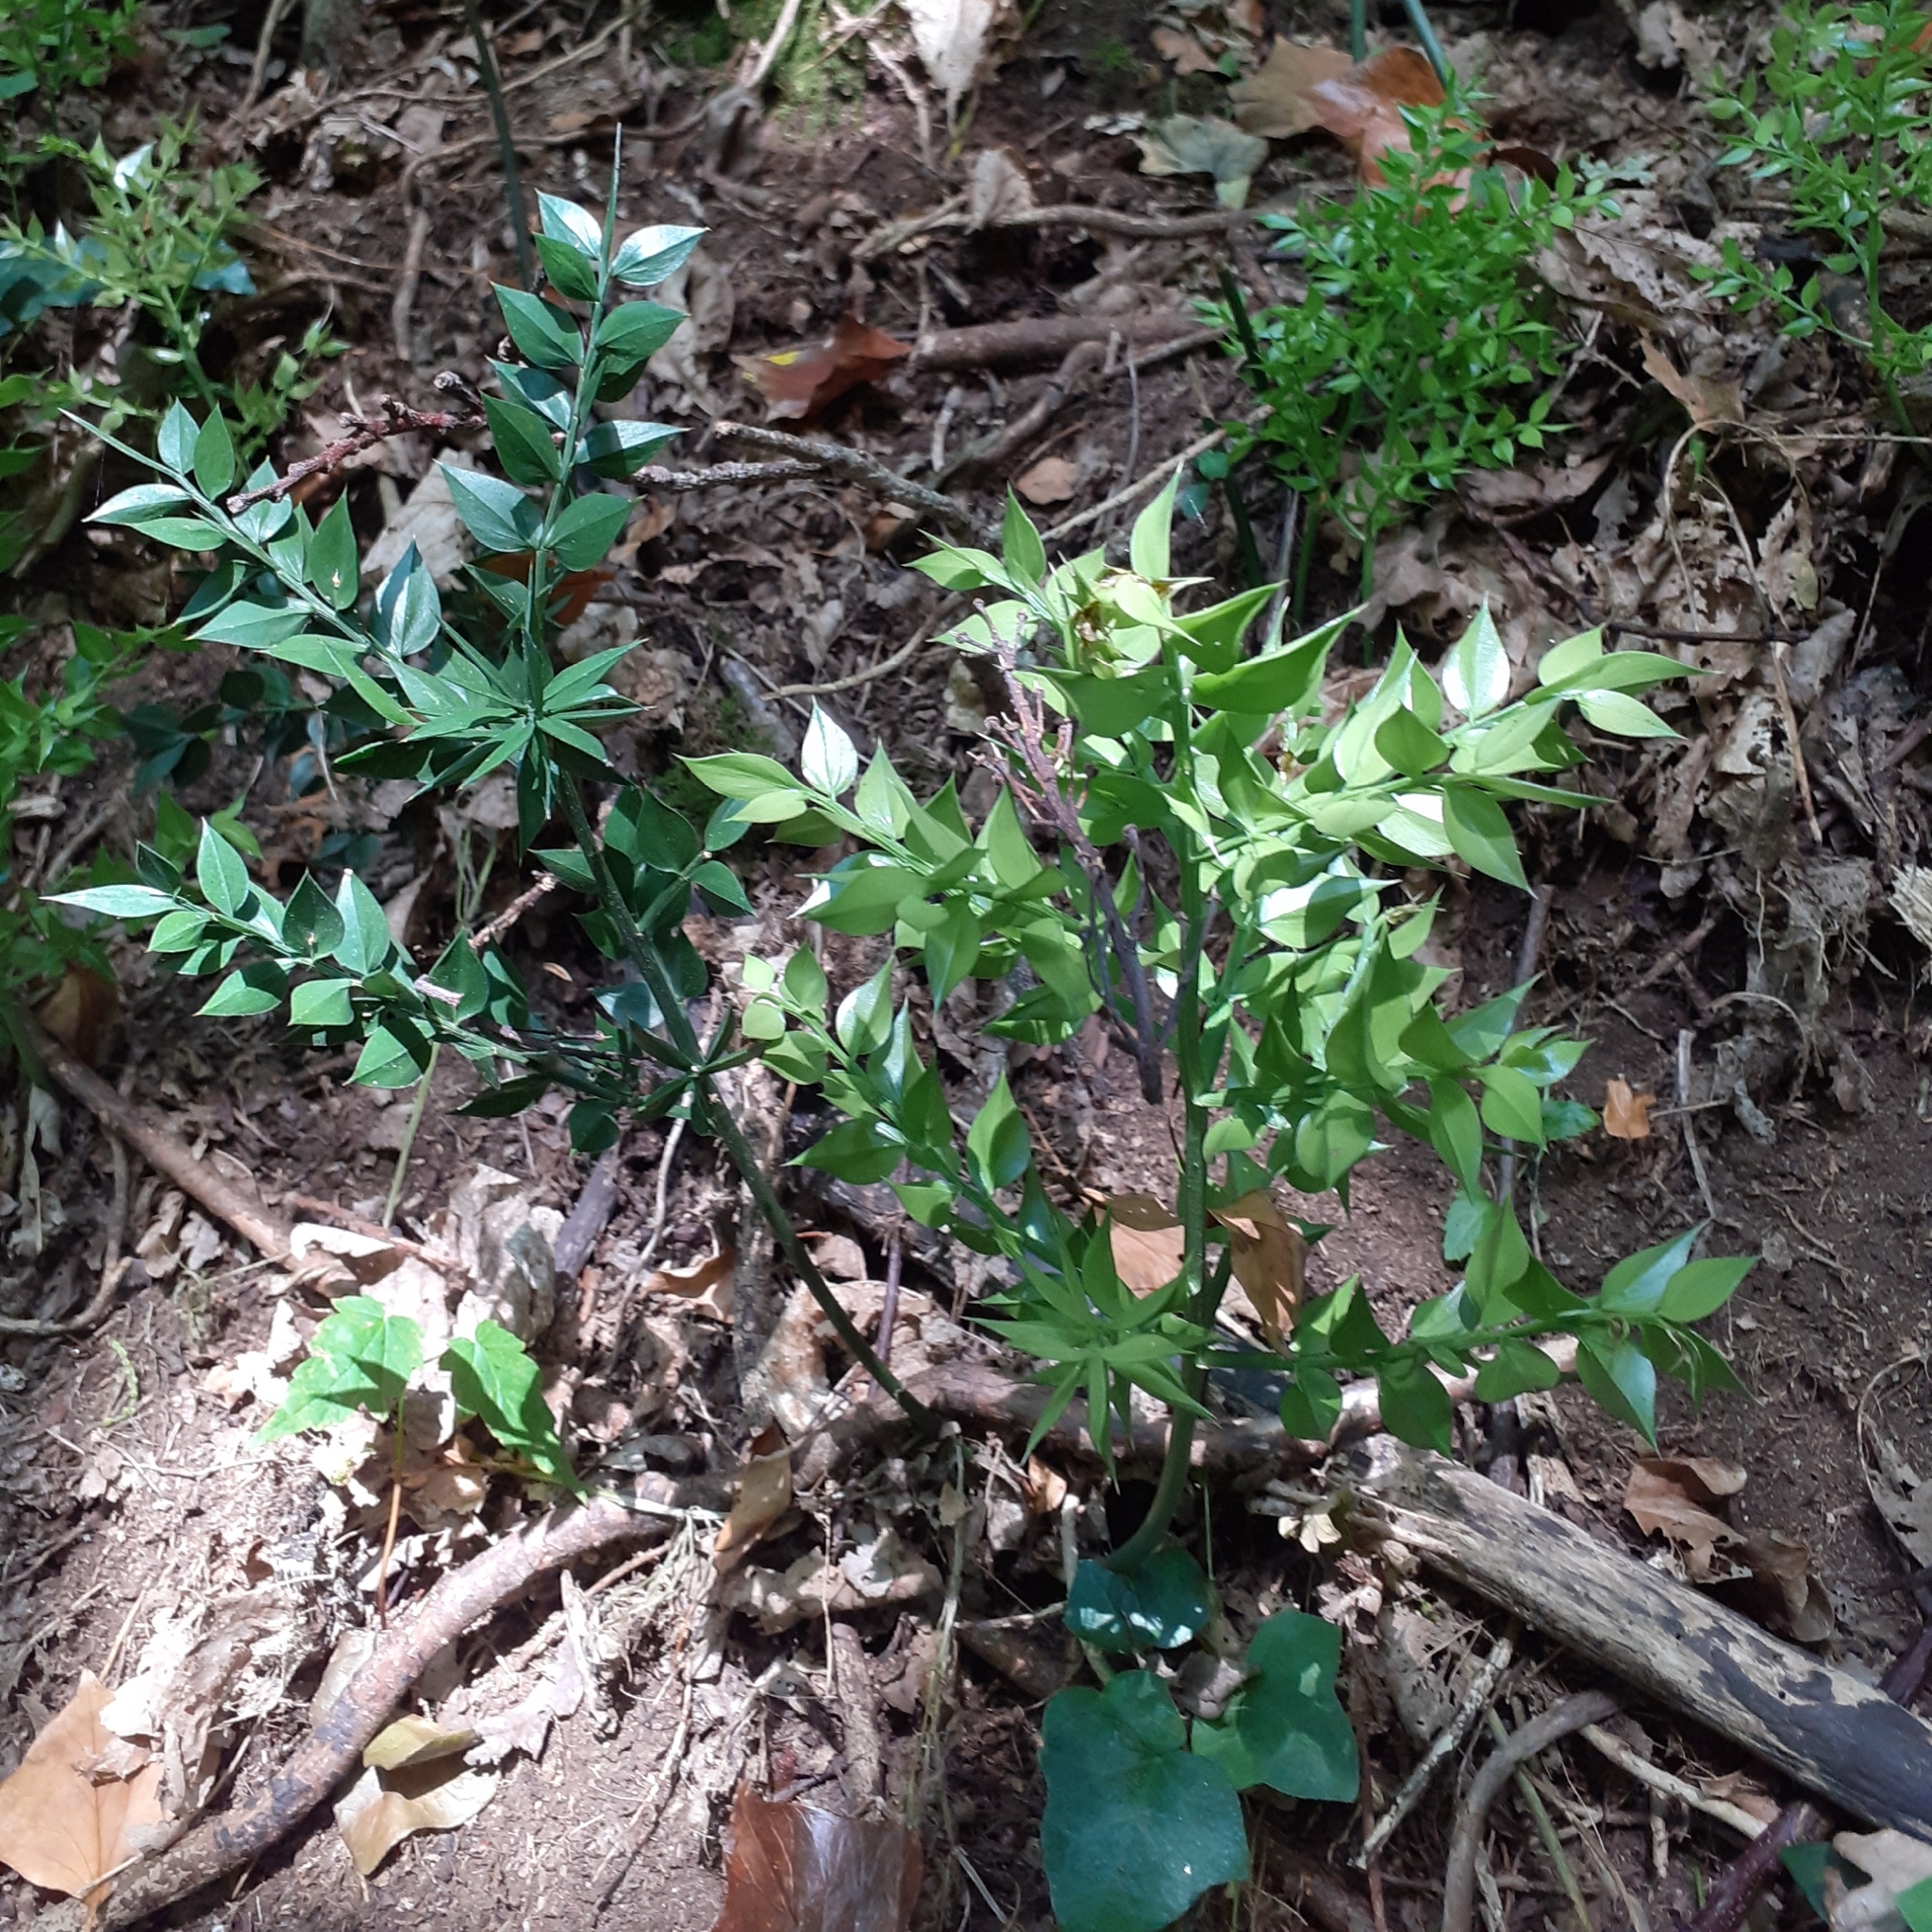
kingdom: Plantae
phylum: Tracheophyta
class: Liliopsida
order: Asparagales
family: Asparagaceae
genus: Ruscus
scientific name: Ruscus aculeatus
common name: Butcher's-broom
